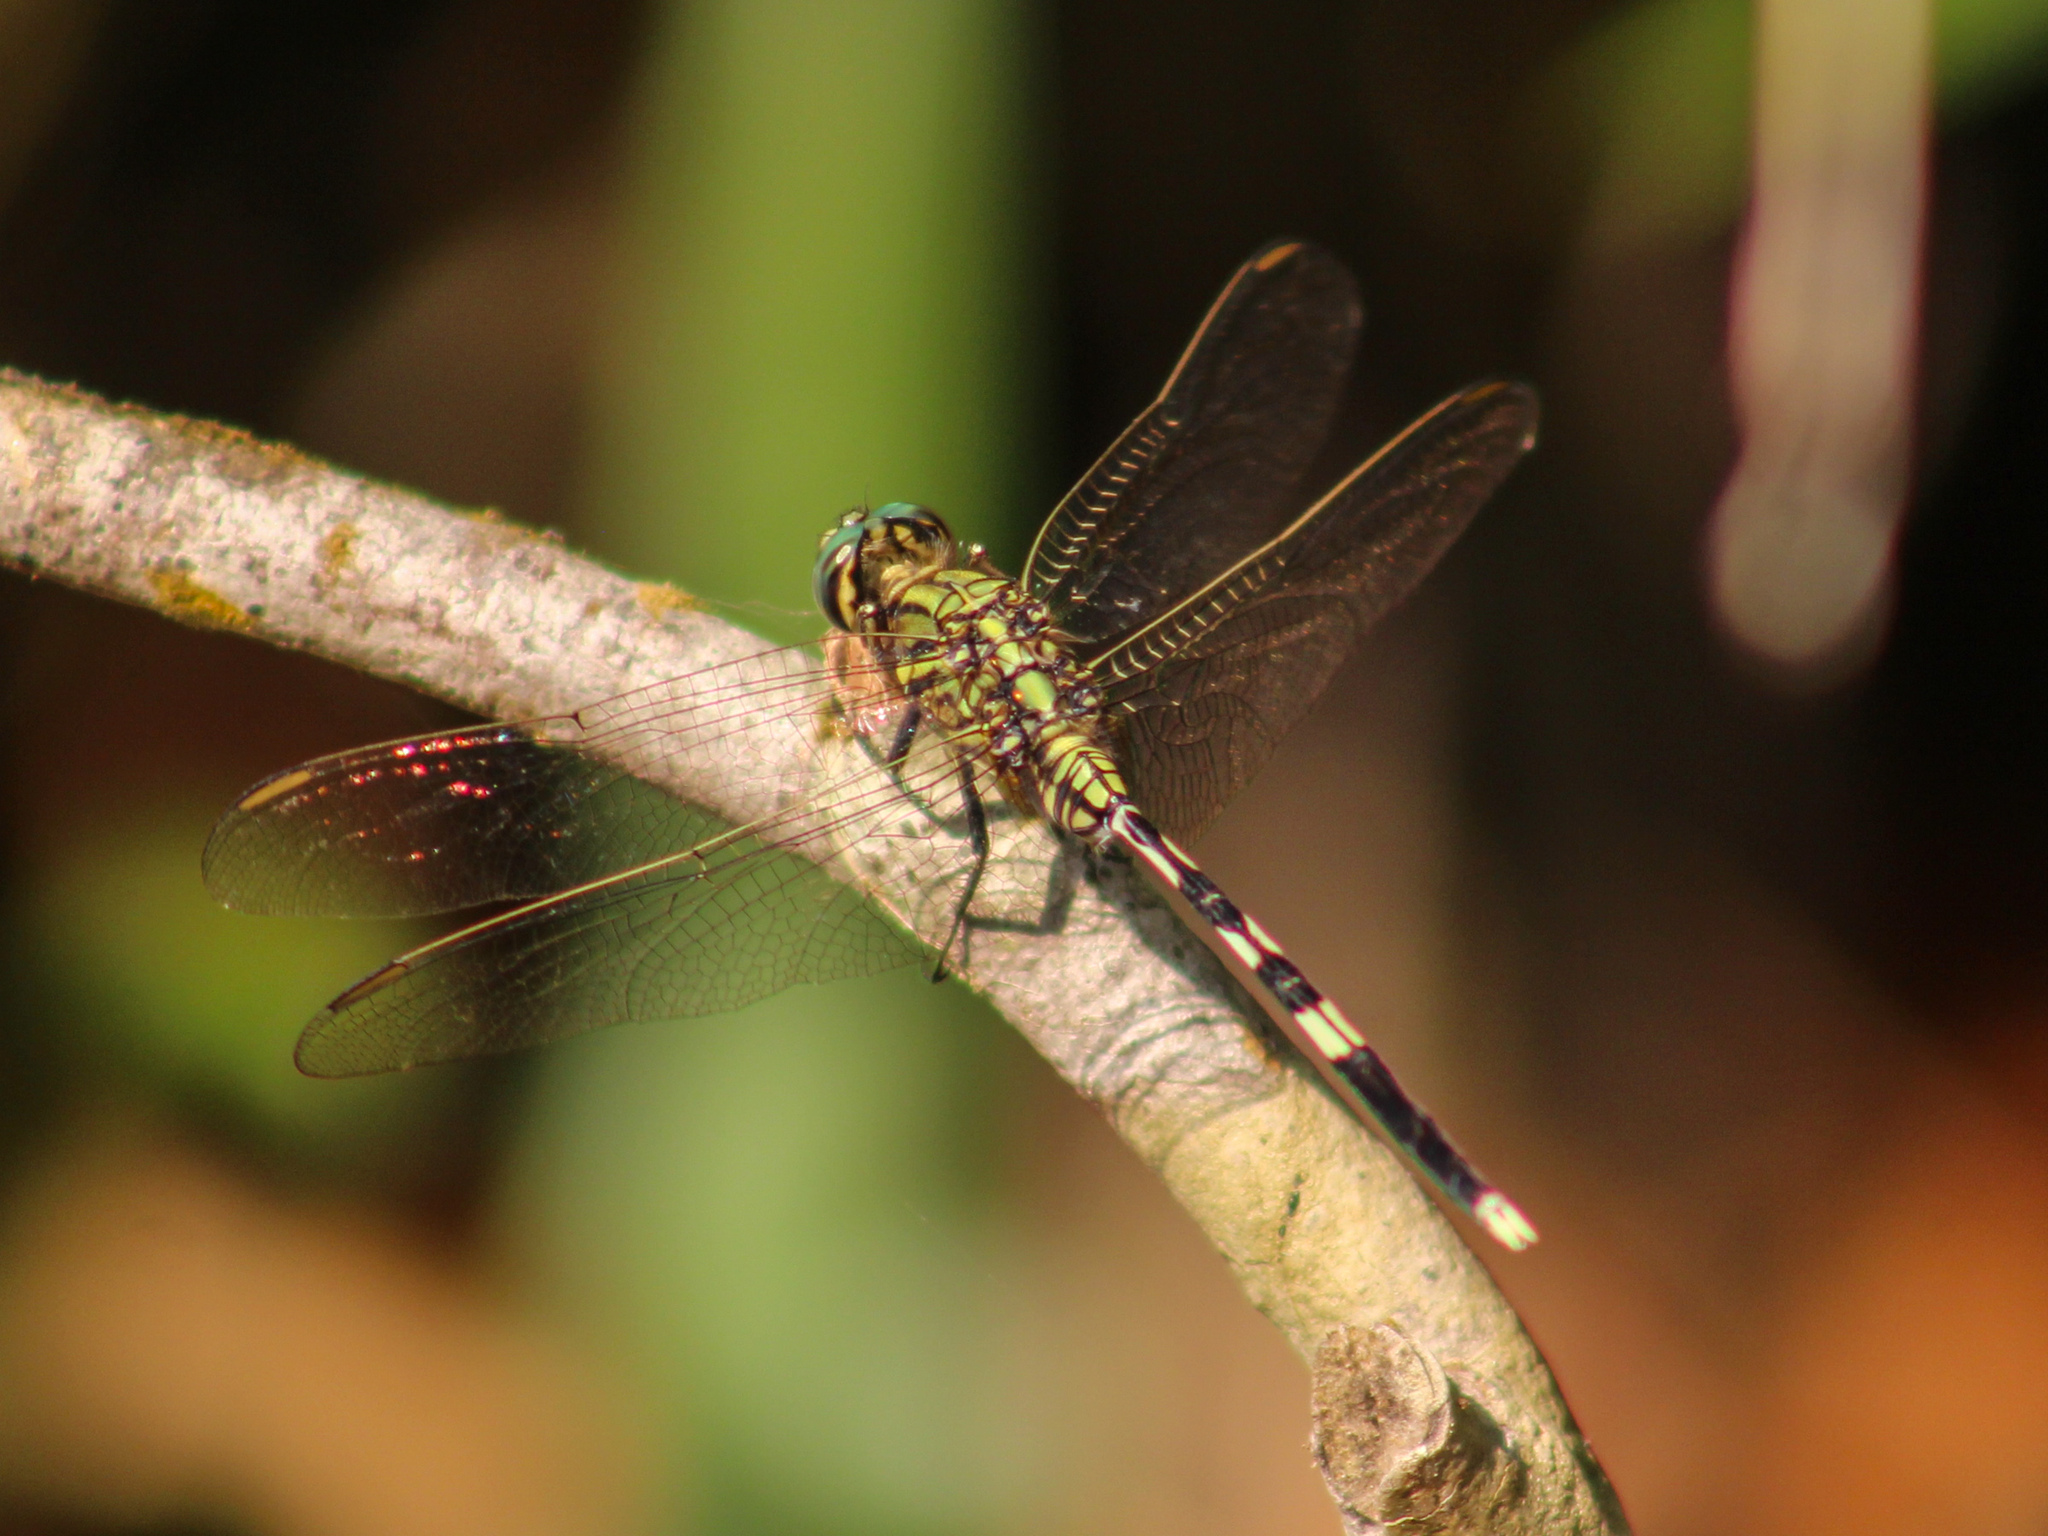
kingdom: Animalia
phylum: Arthropoda
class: Insecta
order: Odonata
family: Libellulidae
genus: Orthetrum
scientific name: Orthetrum sabina
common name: Slender skimmer
